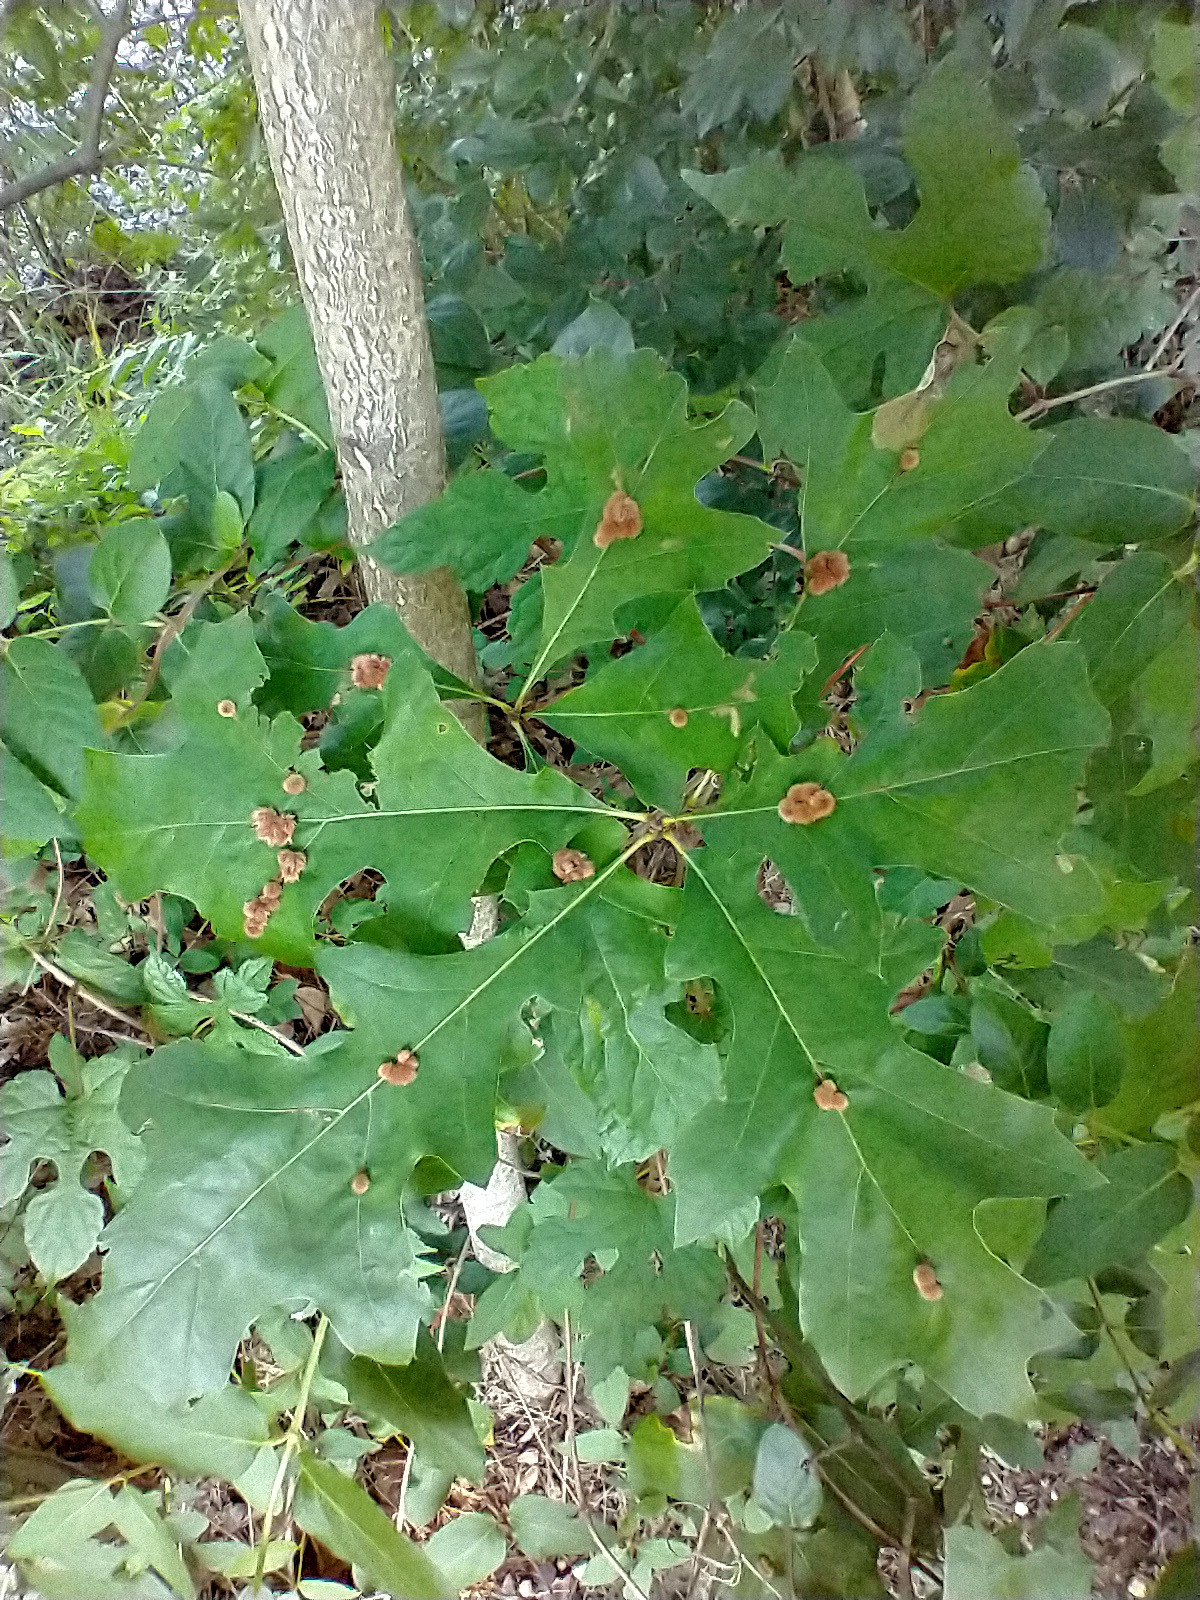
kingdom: Animalia
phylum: Arthropoda
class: Insecta
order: Hymenoptera
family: Cynipidae
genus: Callirhytis
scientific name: Callirhytis
